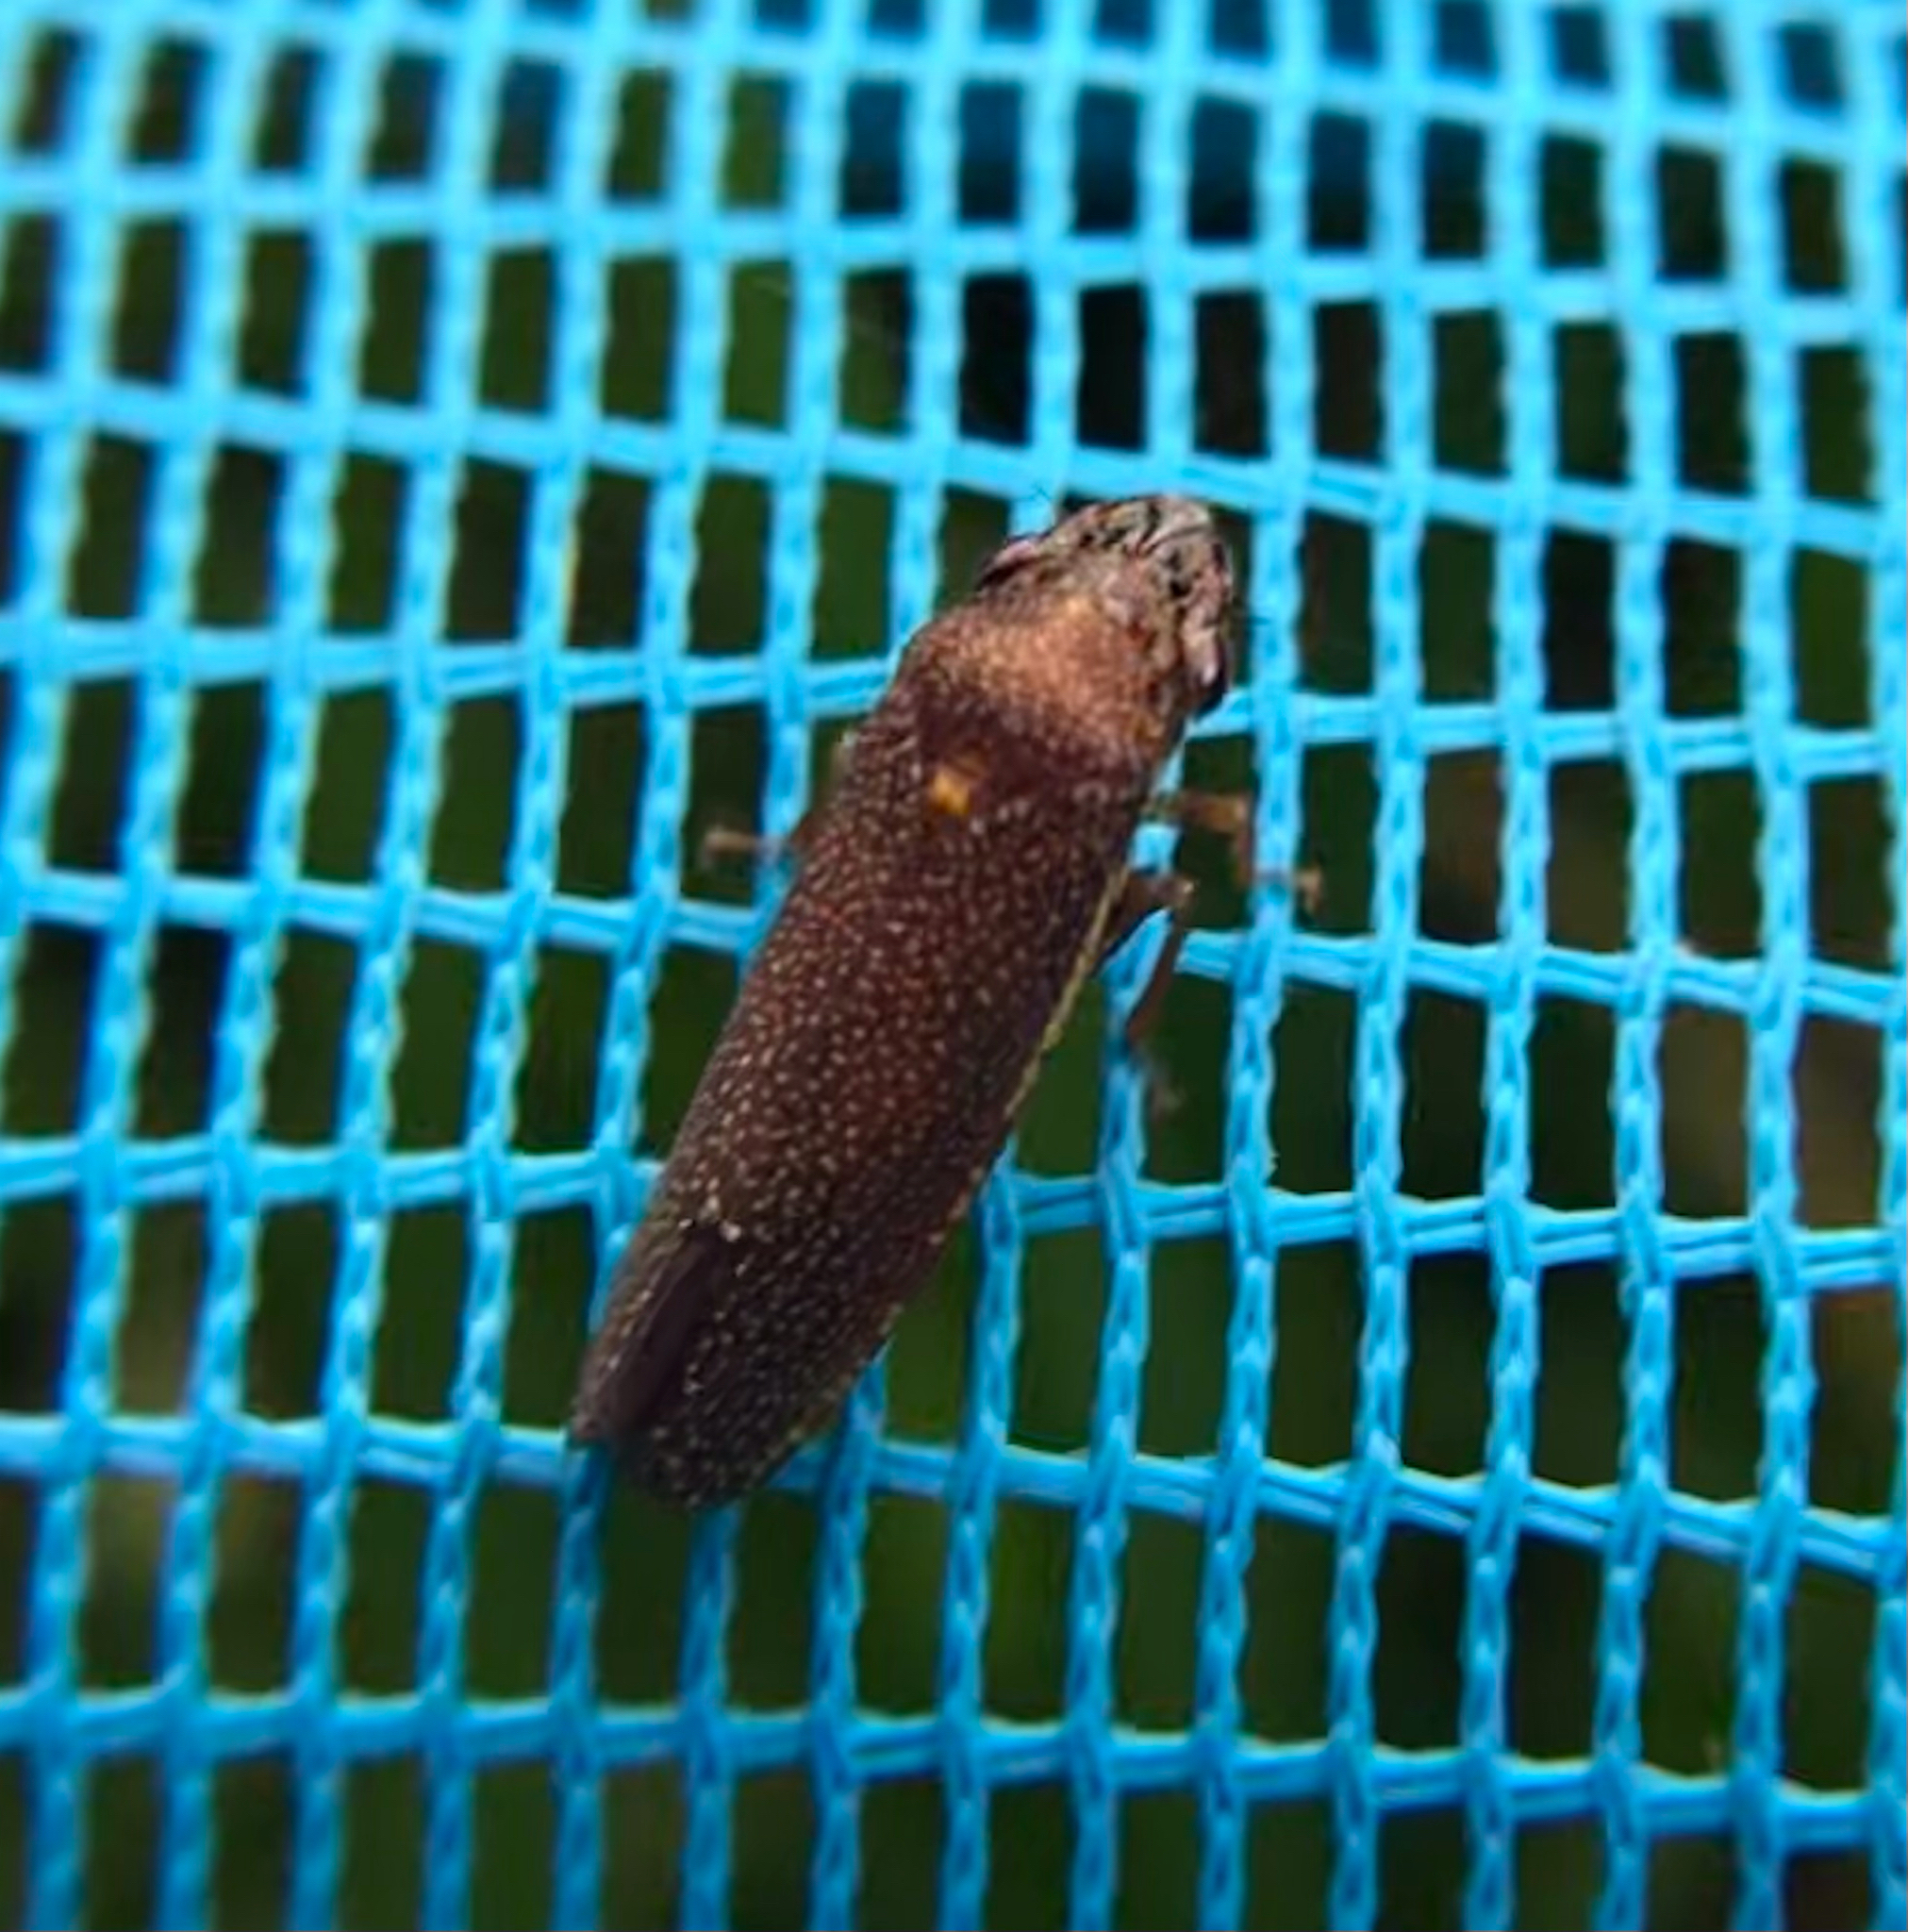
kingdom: Animalia
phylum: Arthropoda
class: Insecta
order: Hemiptera
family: Cicadellidae
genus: Paraulacizes
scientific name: Paraulacizes irrorata
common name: Speckled sharpshooter
